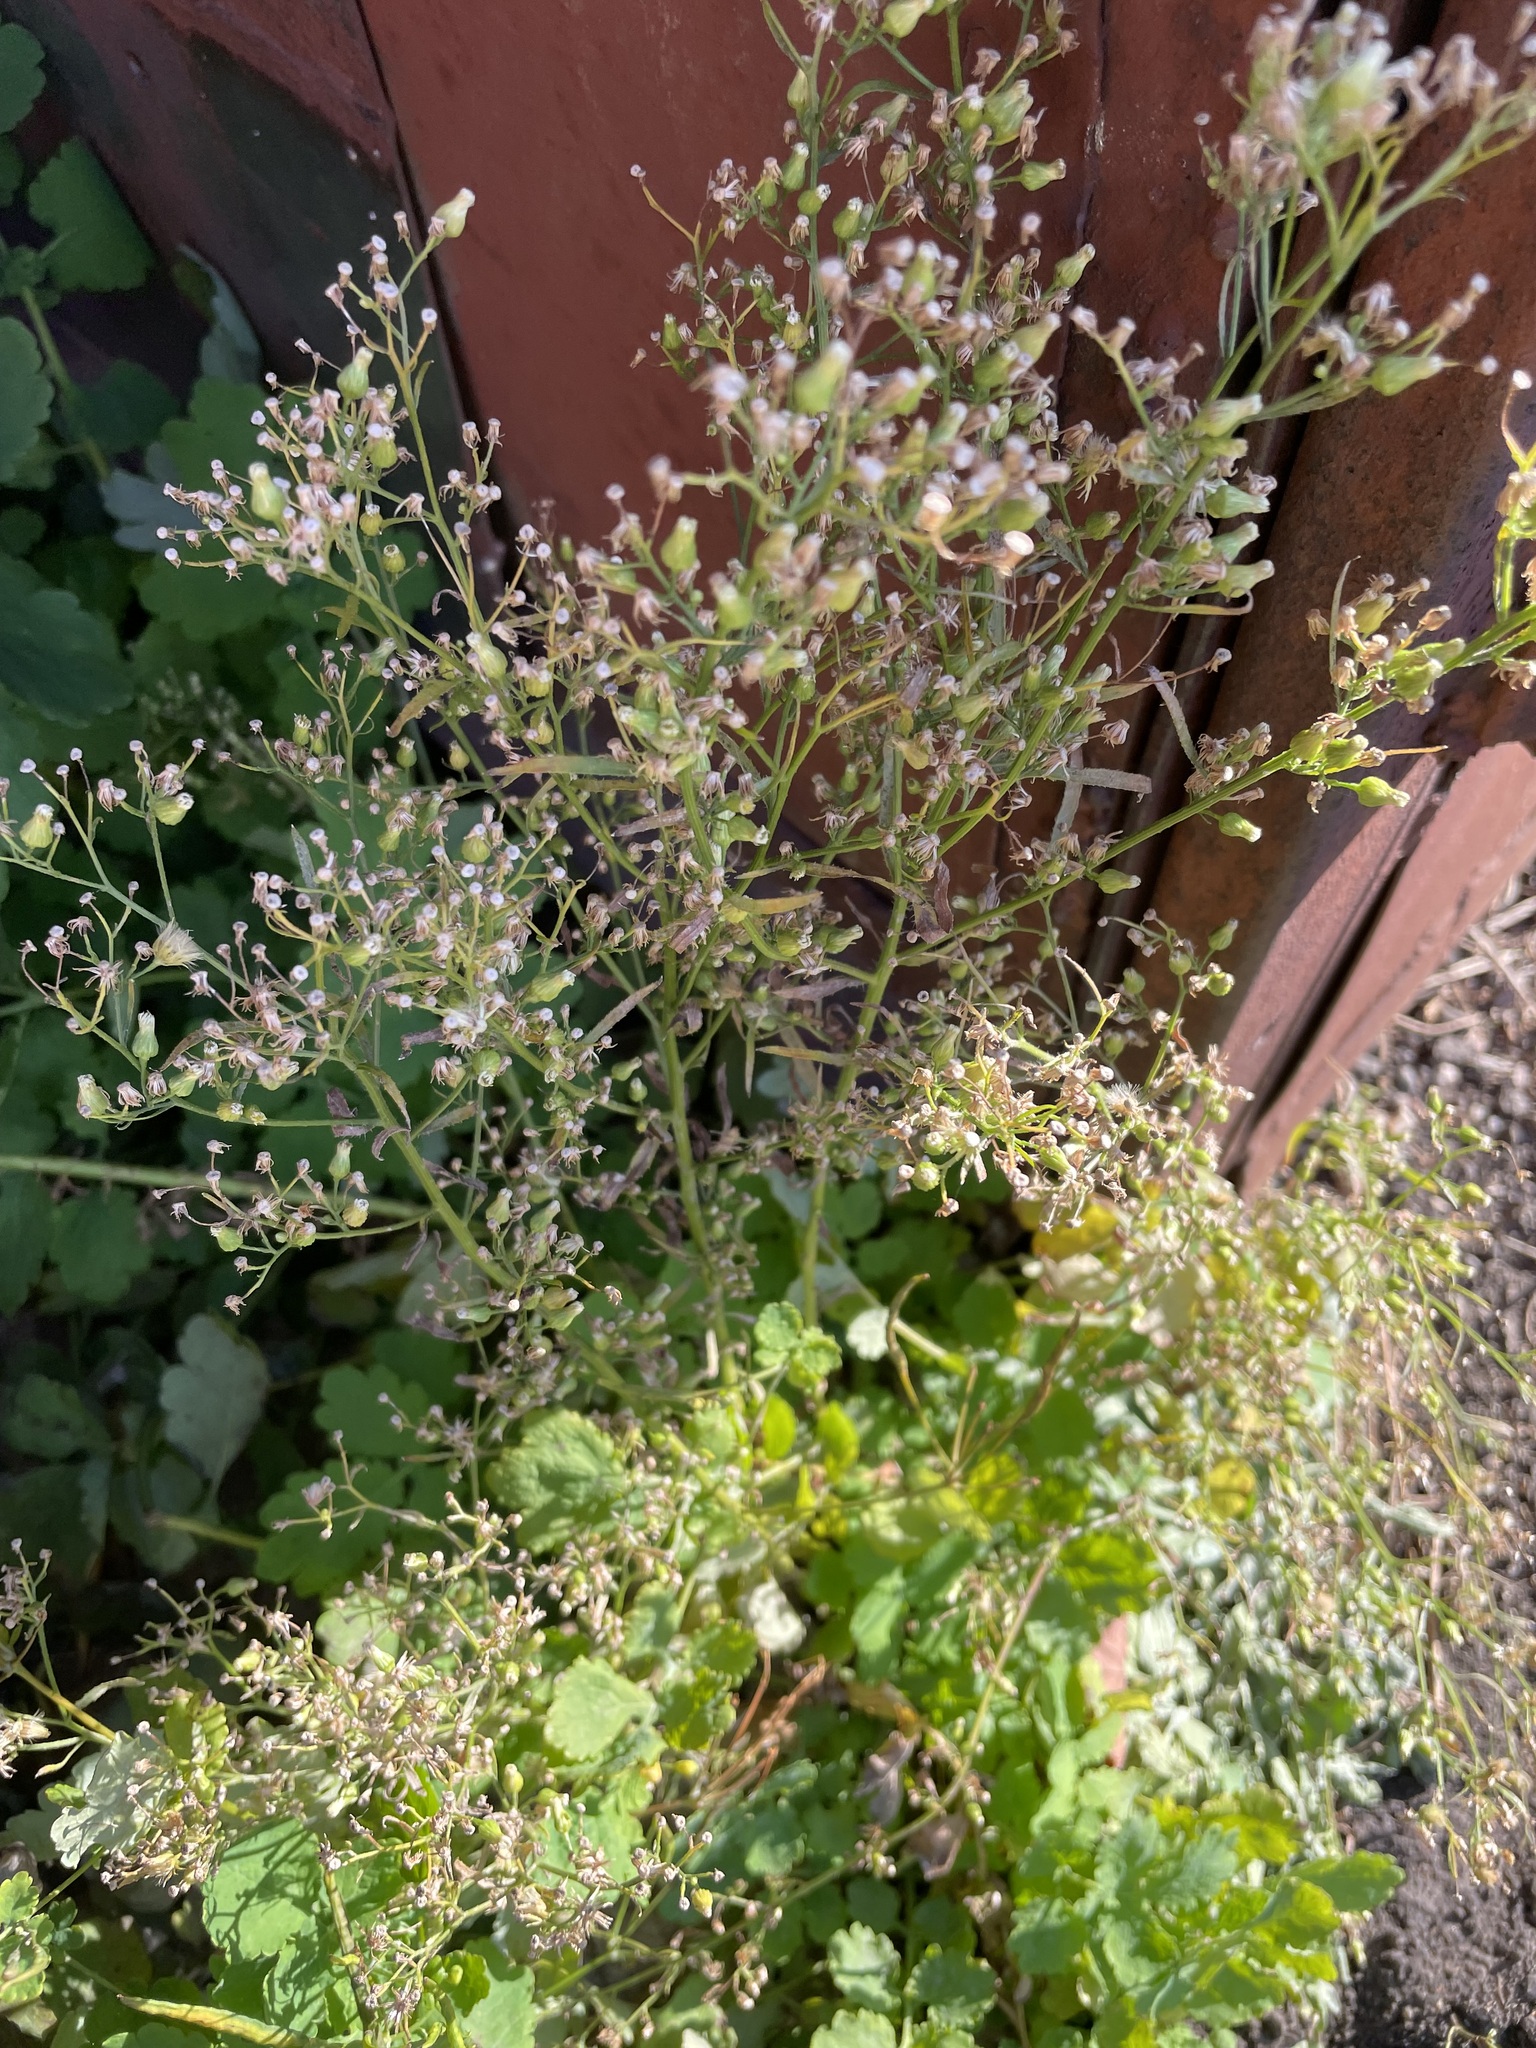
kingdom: Plantae
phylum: Tracheophyta
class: Magnoliopsida
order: Asterales
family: Asteraceae
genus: Erigeron
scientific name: Erigeron canadensis
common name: Canadian fleabane
